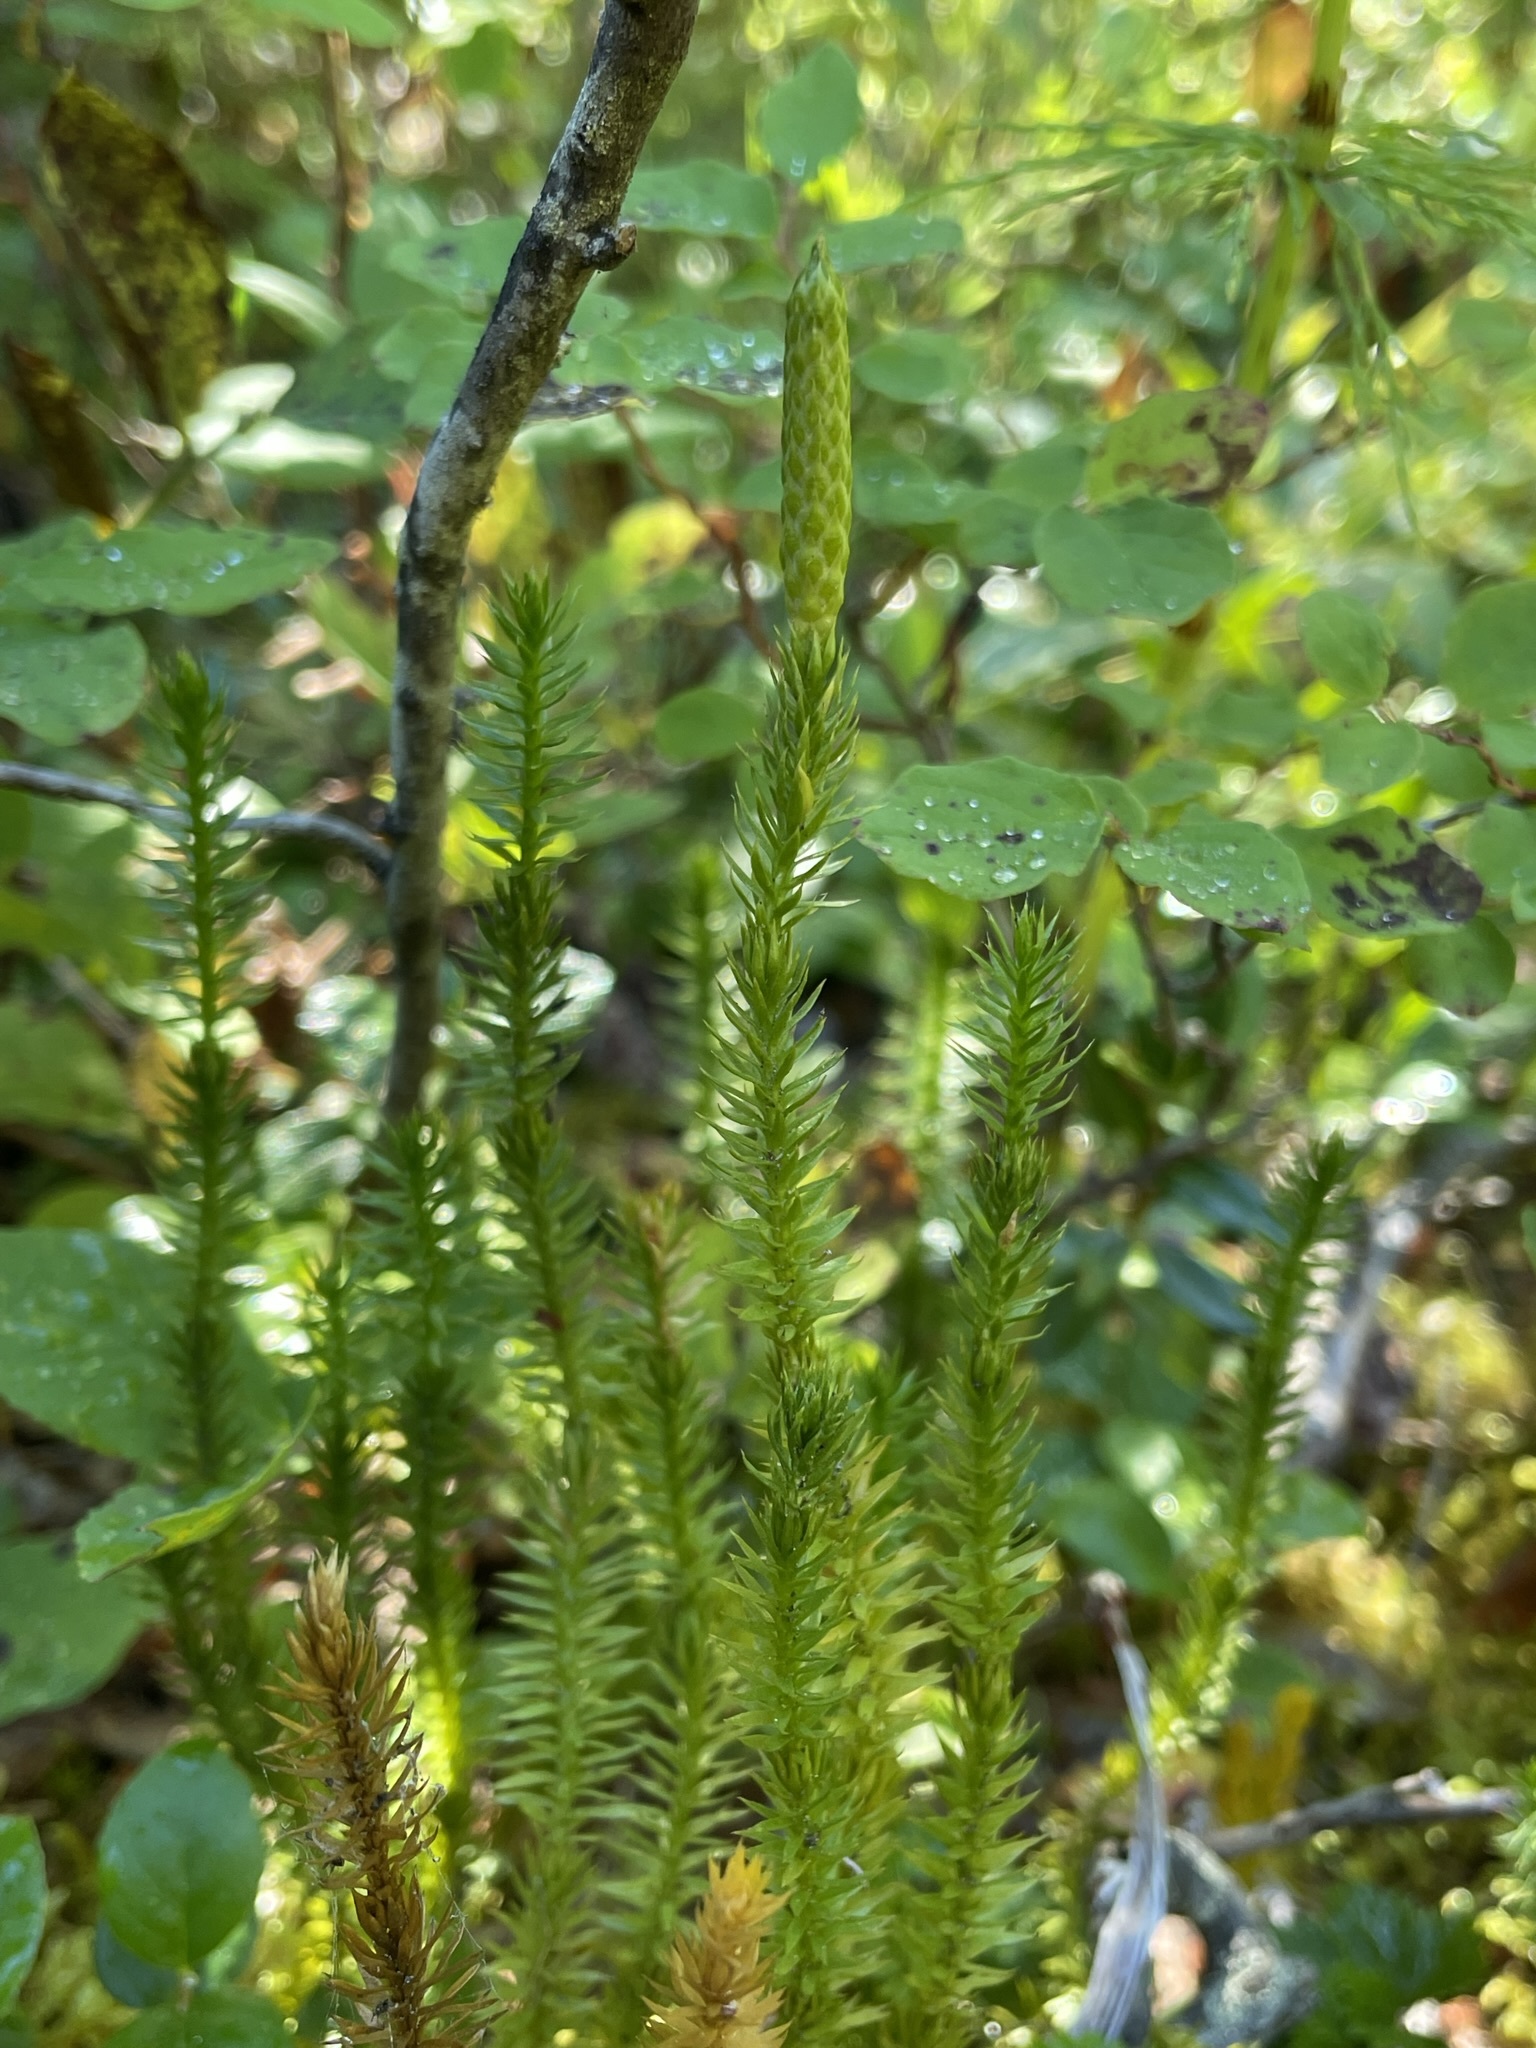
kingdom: Plantae
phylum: Tracheophyta
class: Lycopodiopsida
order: Lycopodiales
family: Lycopodiaceae
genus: Spinulum
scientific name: Spinulum annotinum
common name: Interrupted club-moss
